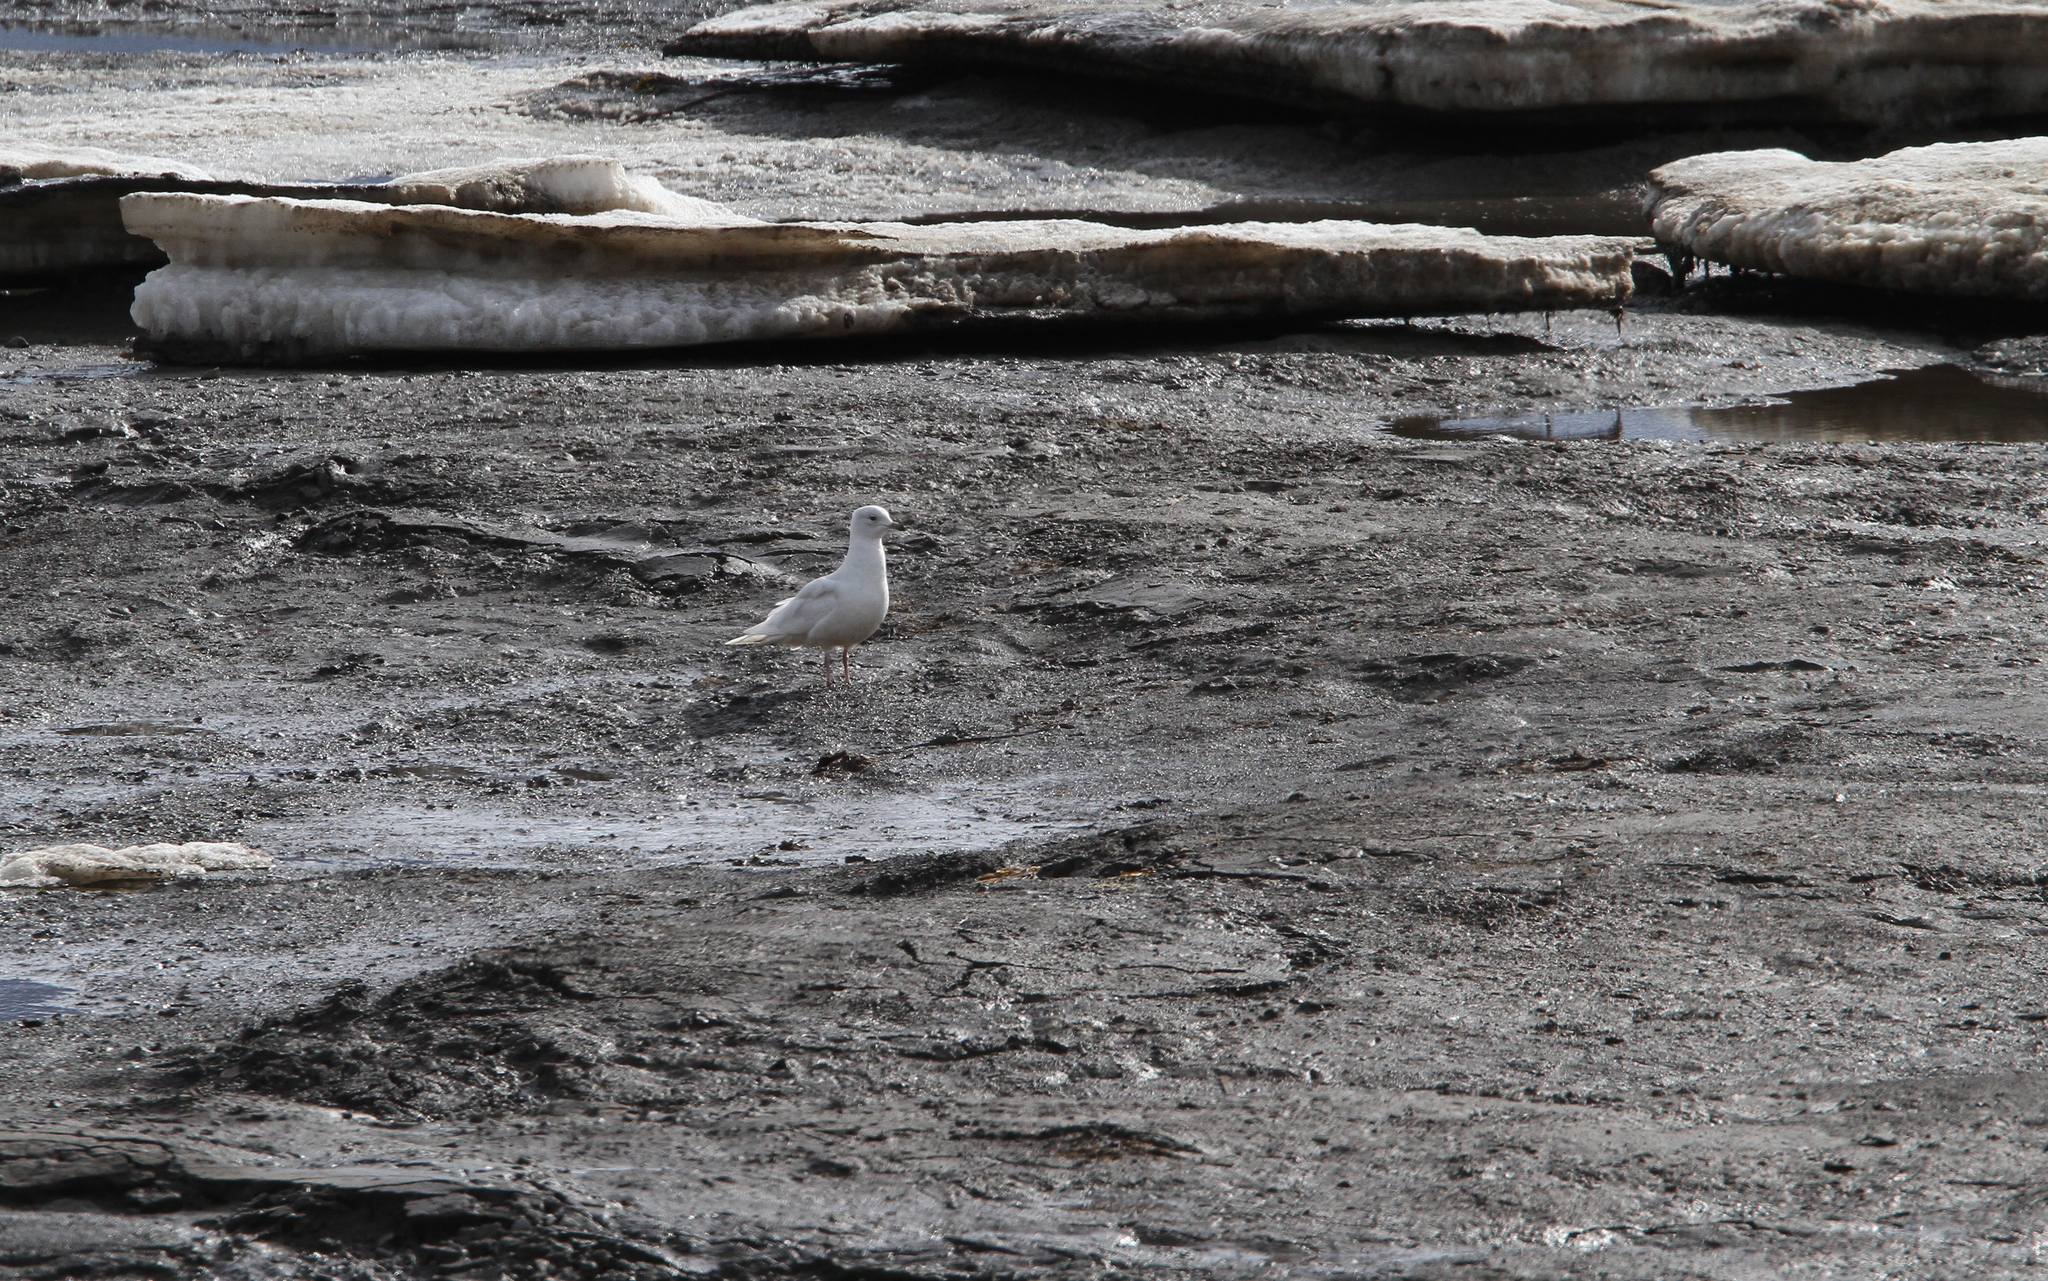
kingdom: Animalia
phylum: Chordata
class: Aves
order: Charadriiformes
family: Laridae
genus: Larus
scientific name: Larus glaucoides
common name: Iceland gull
